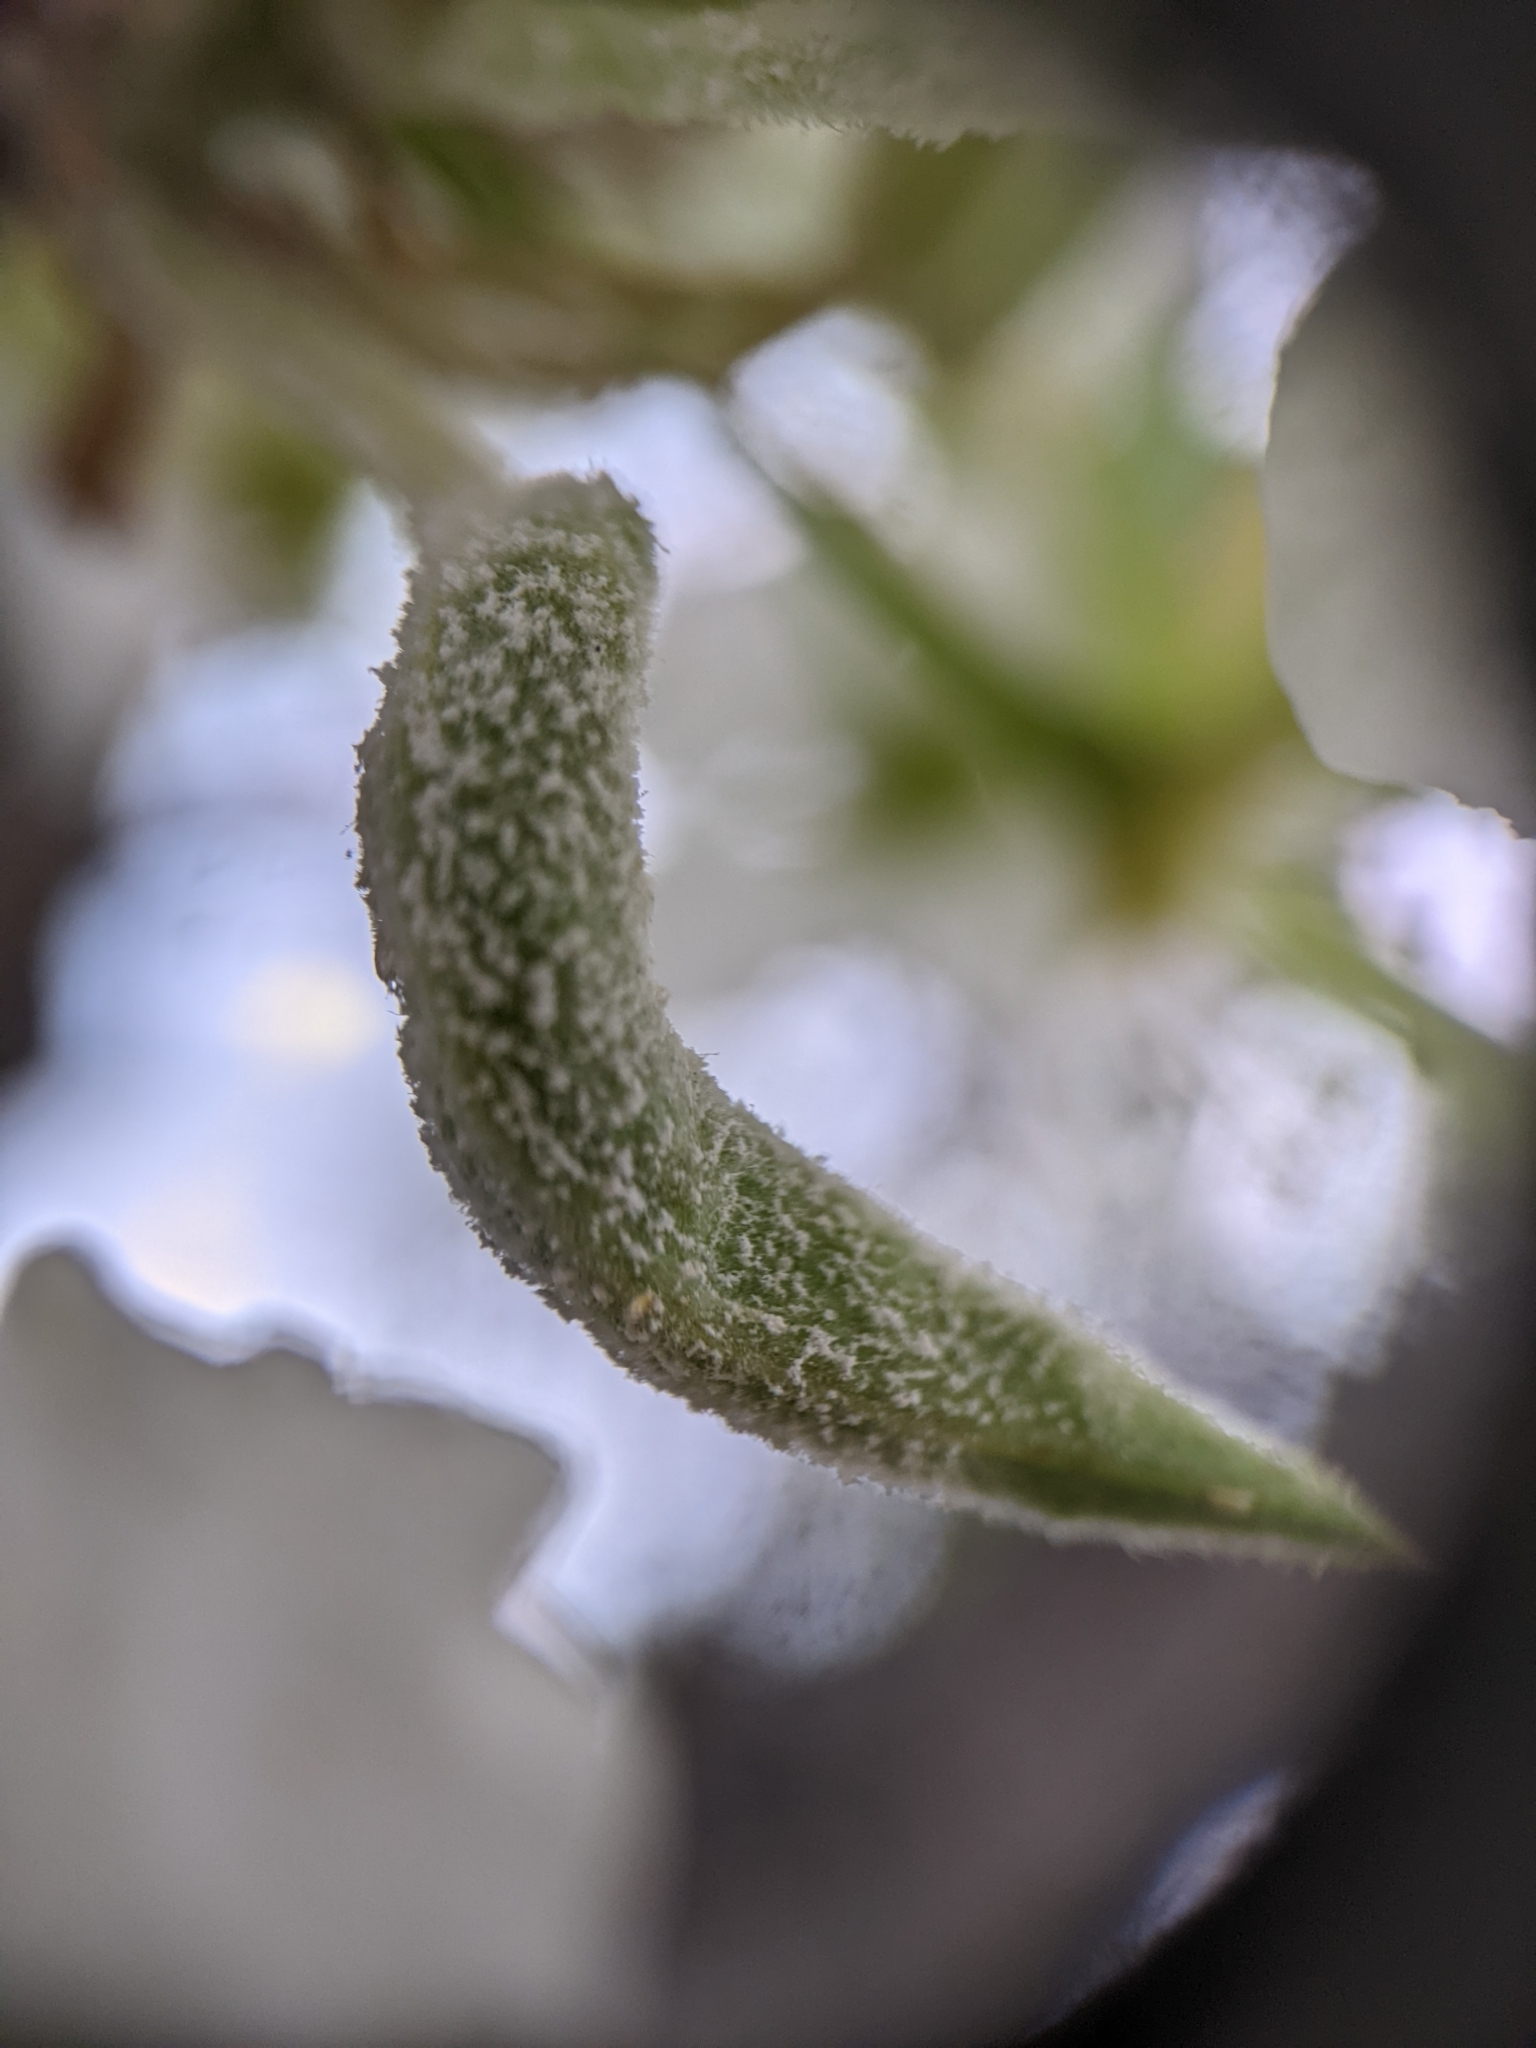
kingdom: Fungi
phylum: Ascomycota
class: Leotiomycetes
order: Helotiales
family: Erysiphaceae
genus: Podosphaera
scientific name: Podosphaera leucotricha
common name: Apple powdery mildew
